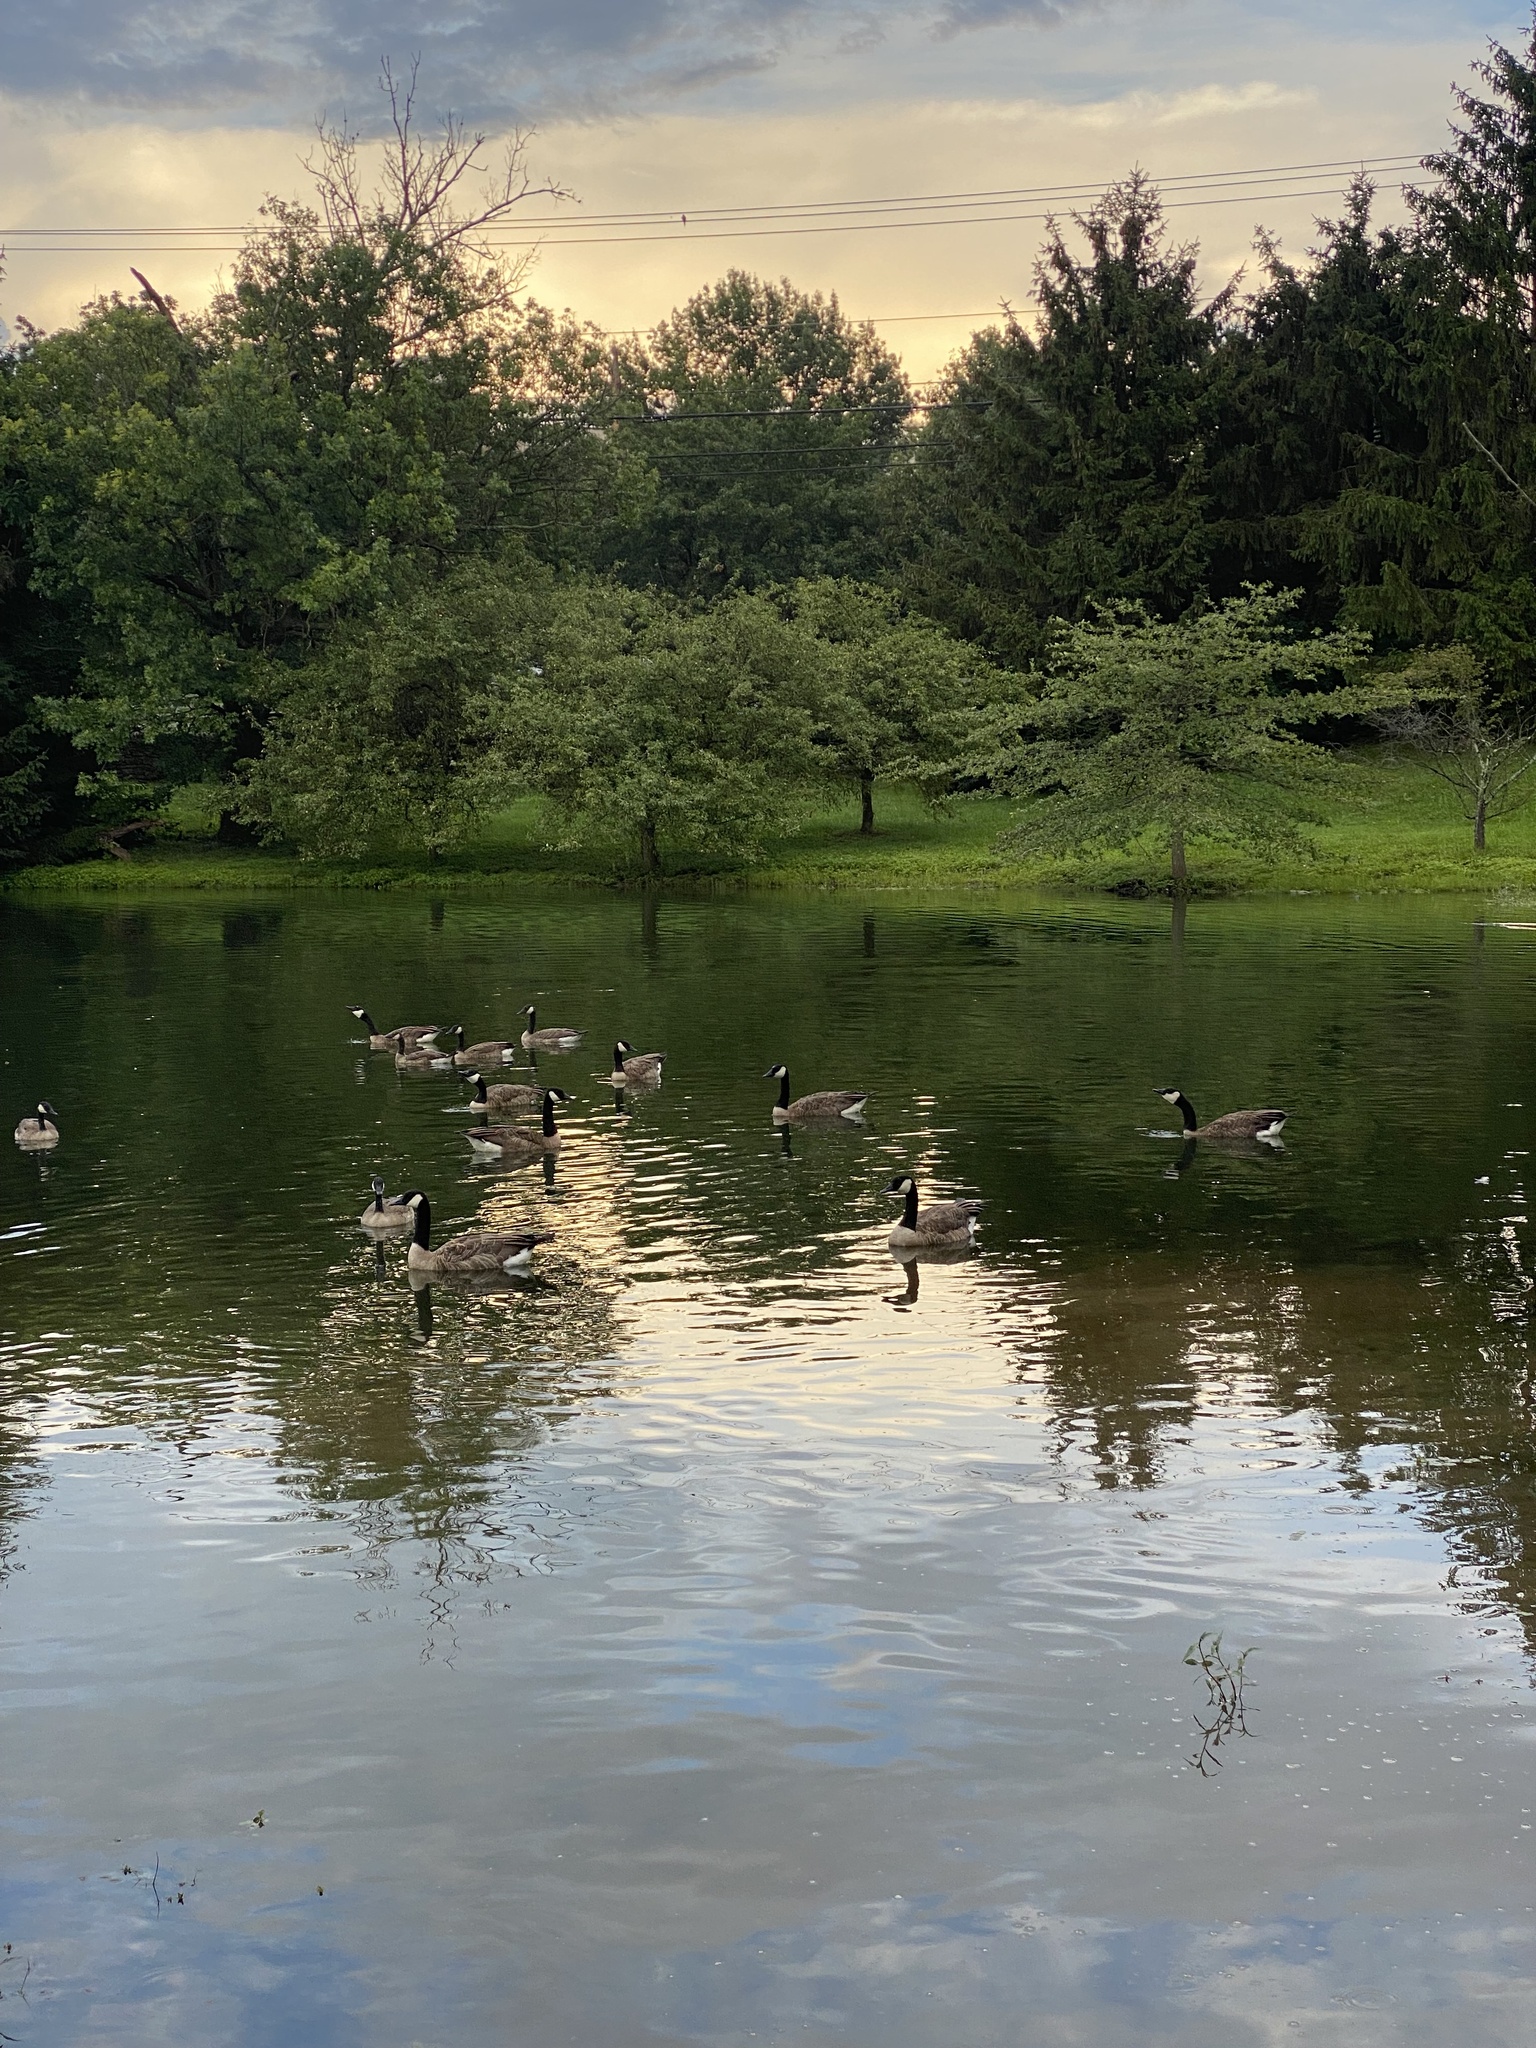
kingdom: Animalia
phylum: Chordata
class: Aves
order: Anseriformes
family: Anatidae
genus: Branta
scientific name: Branta canadensis
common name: Canada goose
